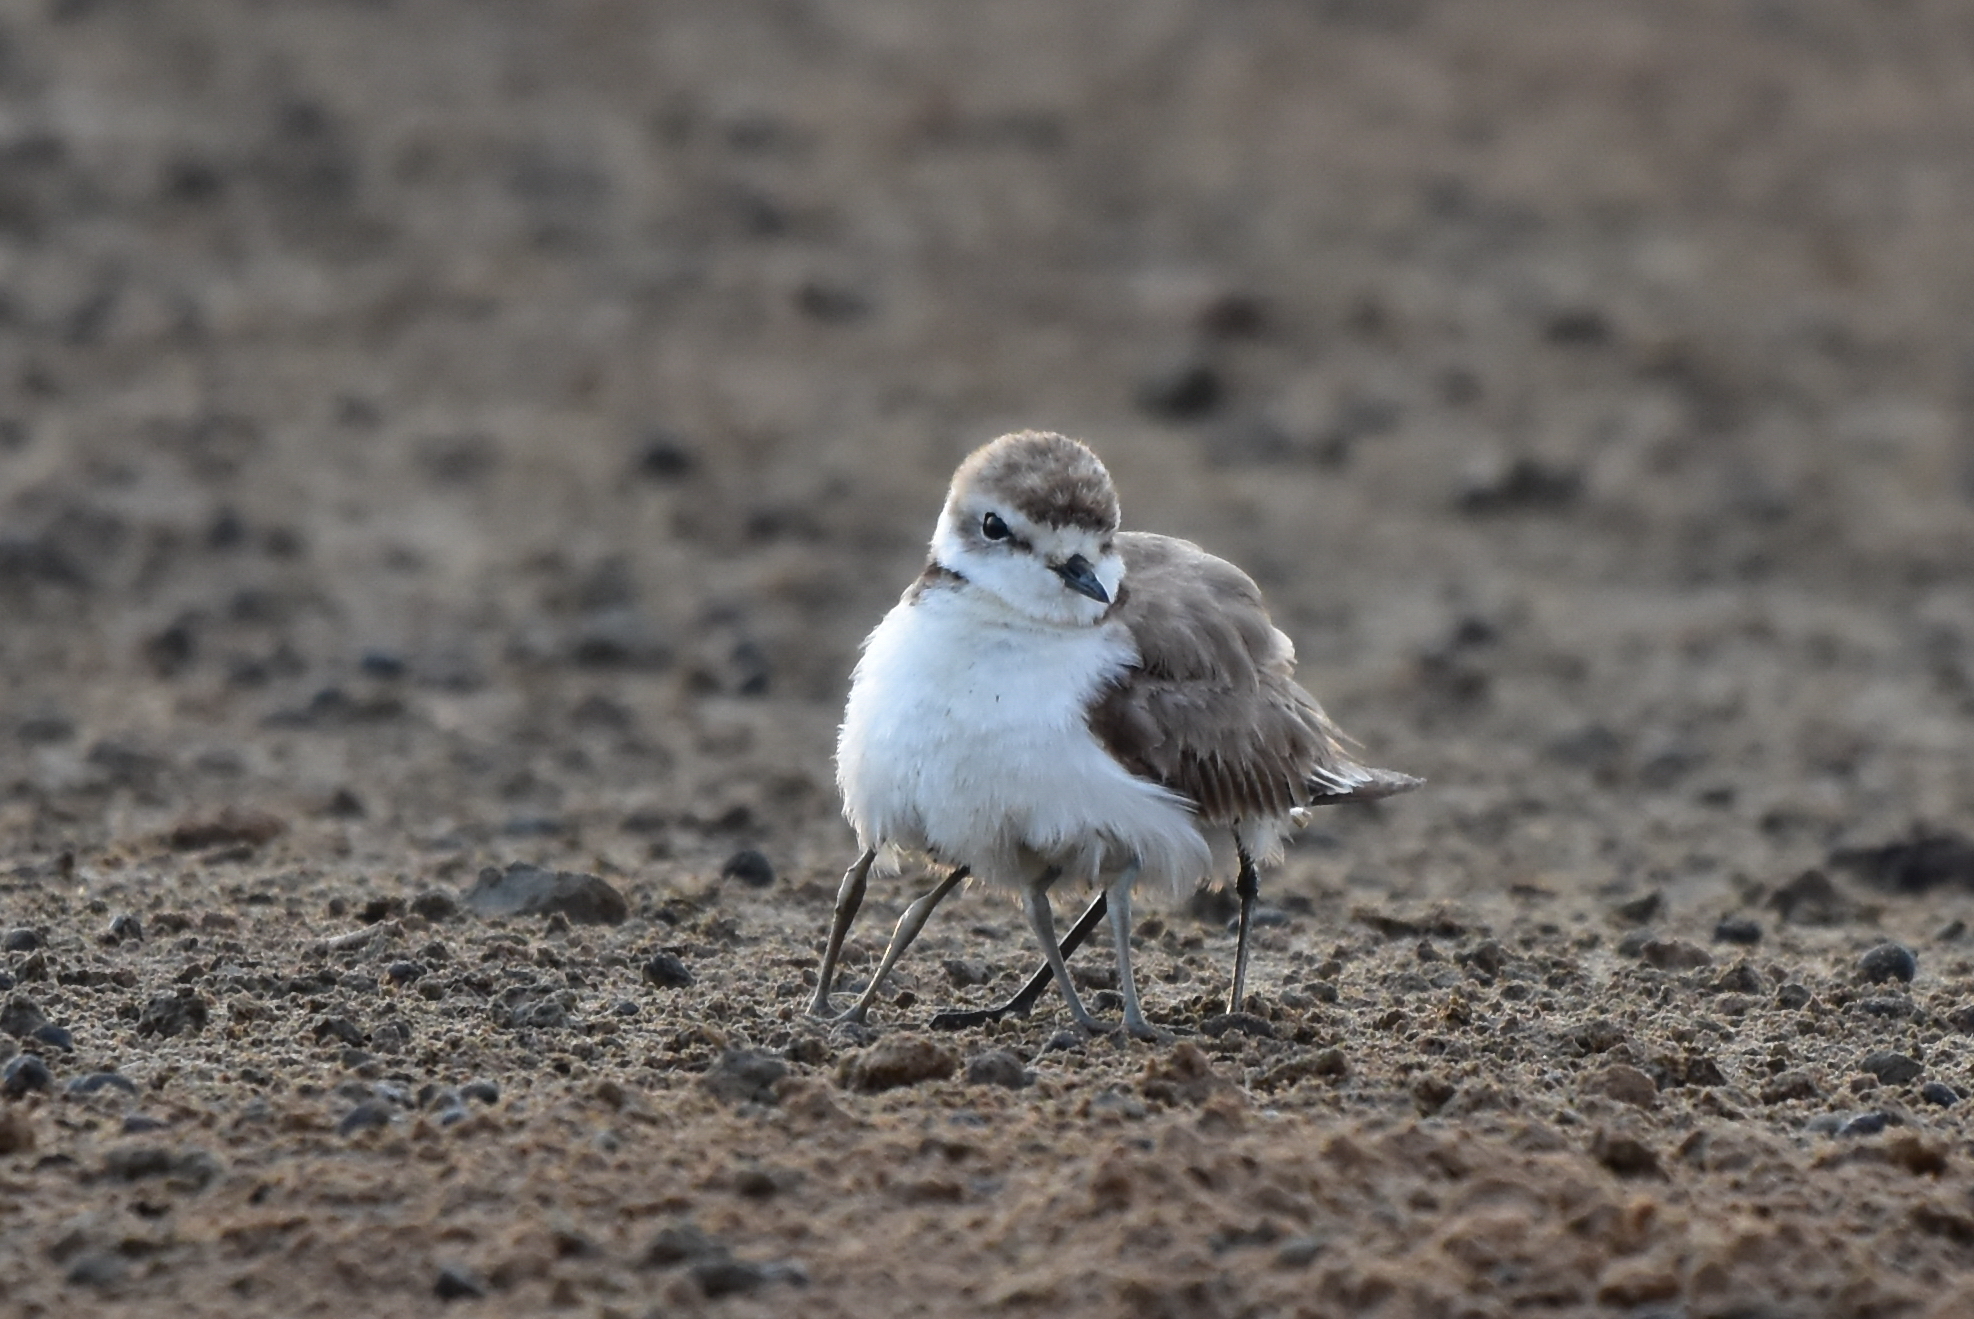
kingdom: Animalia
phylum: Chordata
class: Aves
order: Charadriiformes
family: Charadriidae
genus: Charadrius
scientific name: Charadrius alexandrinus
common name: Kentish plover
